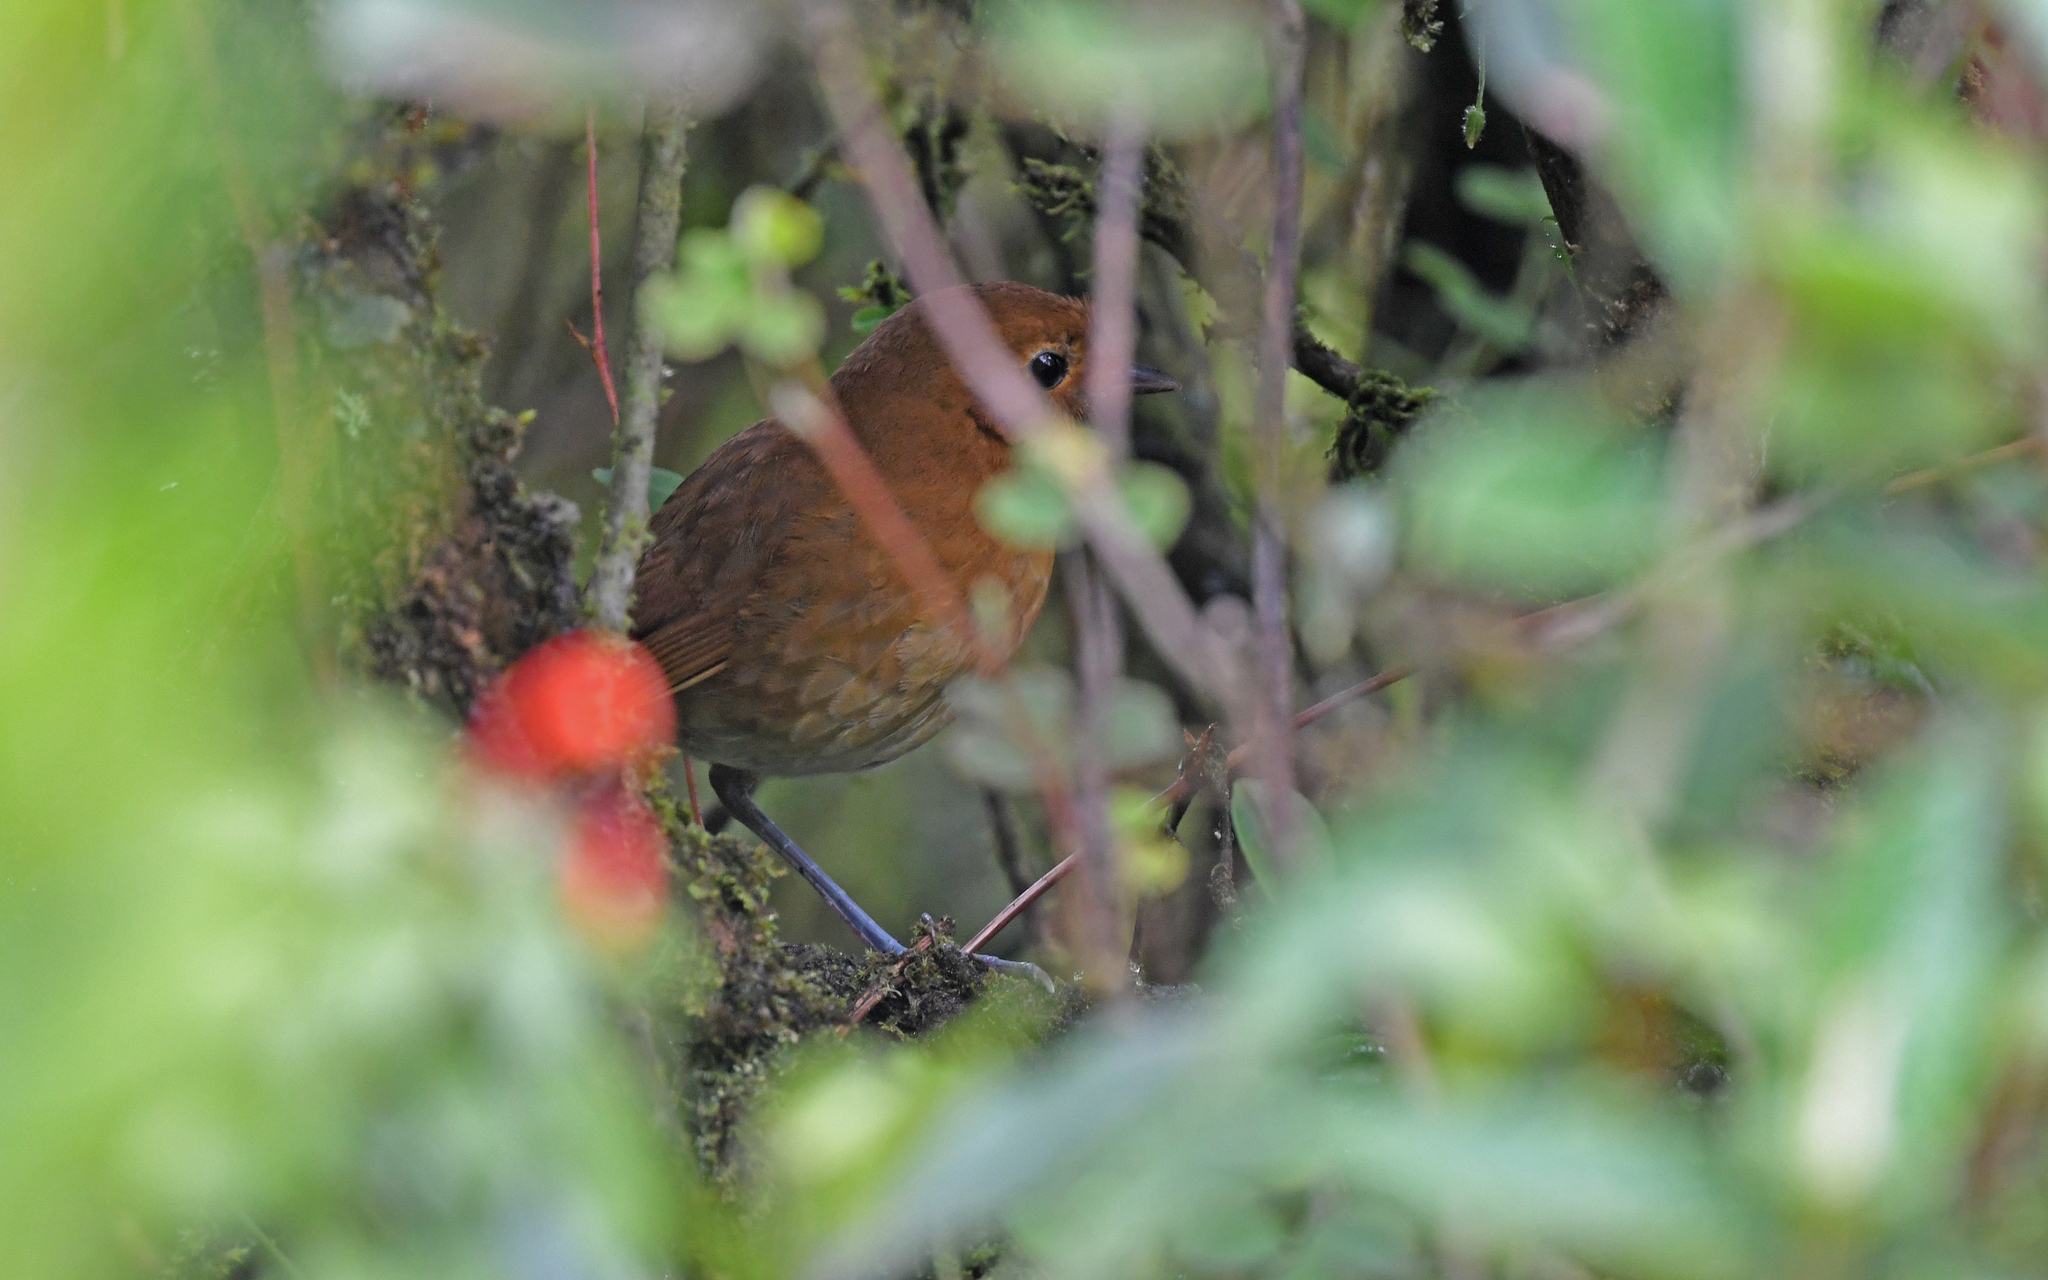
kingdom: Animalia
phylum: Chordata
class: Aves
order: Passeriformes
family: Grallariidae
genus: Grallaria
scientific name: Grallaria rufula
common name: Rufous antpitta
